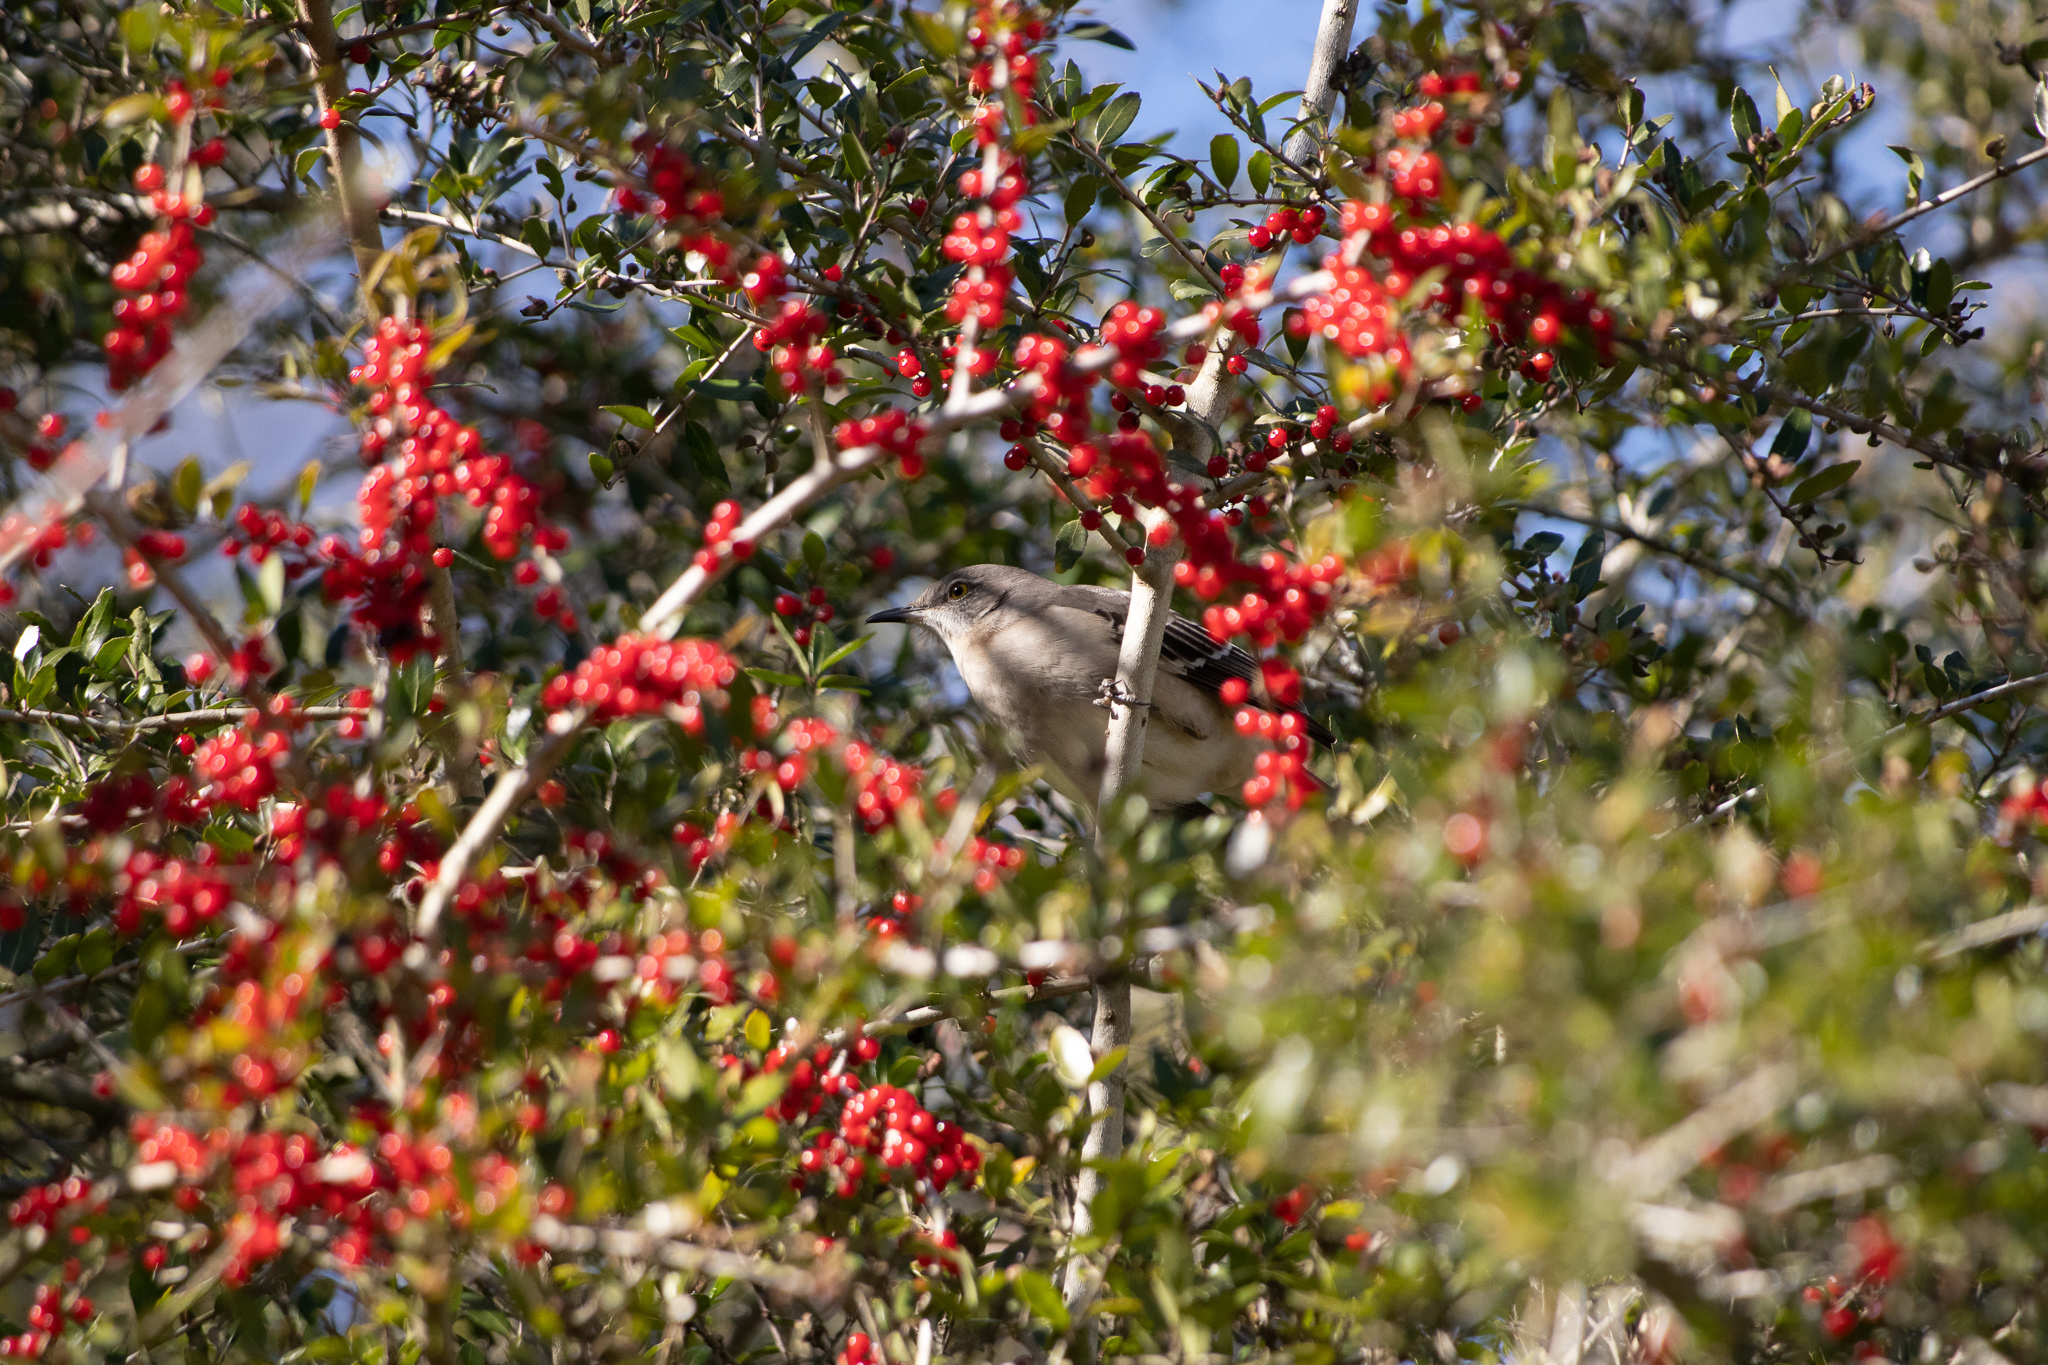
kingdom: Animalia
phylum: Chordata
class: Aves
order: Passeriformes
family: Mimidae
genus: Mimus
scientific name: Mimus polyglottos
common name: Northern mockingbird
